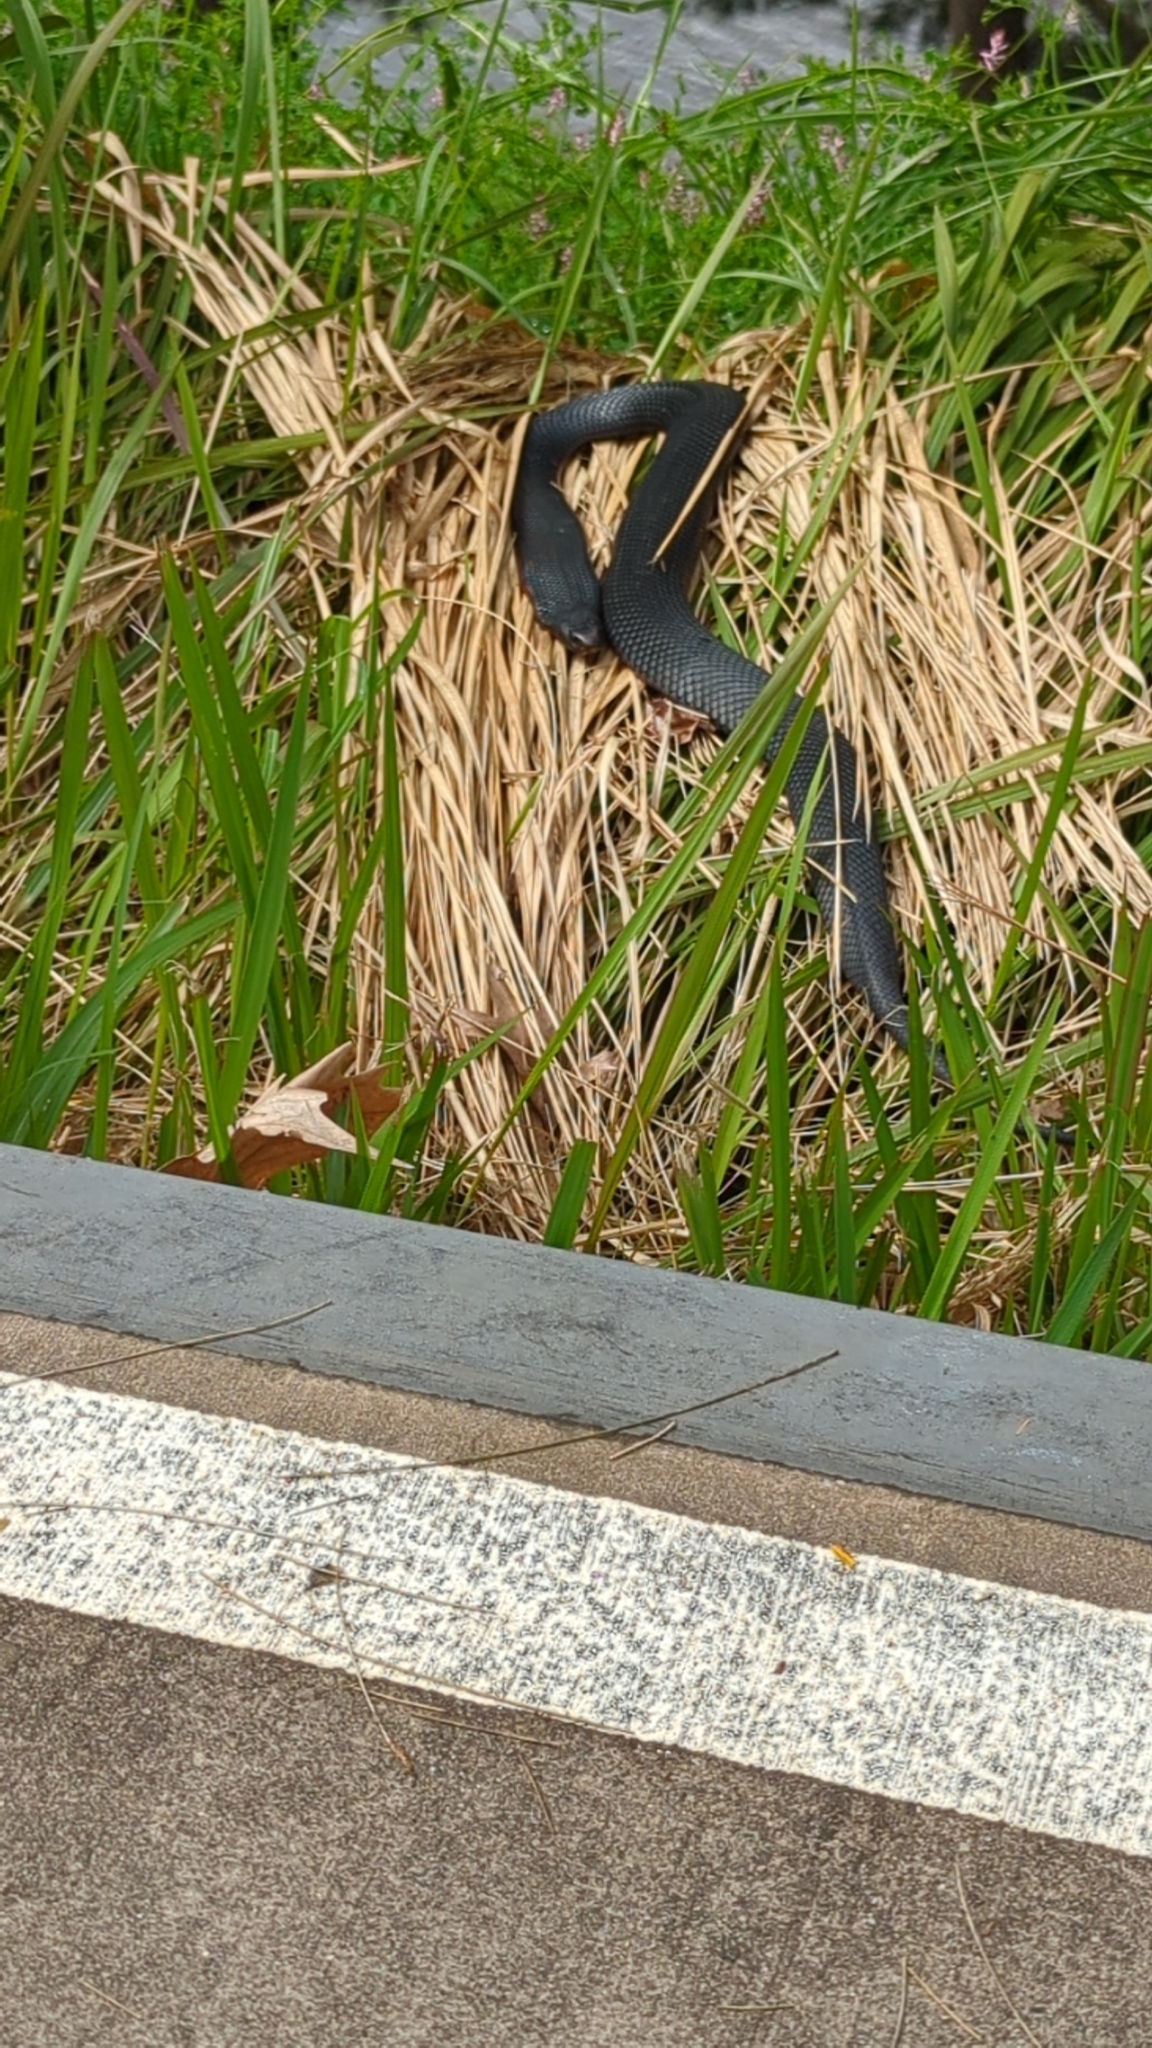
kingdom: Animalia
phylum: Chordata
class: Squamata
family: Elapidae
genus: Pseudechis
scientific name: Pseudechis porphyriacus
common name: Australian black snake
